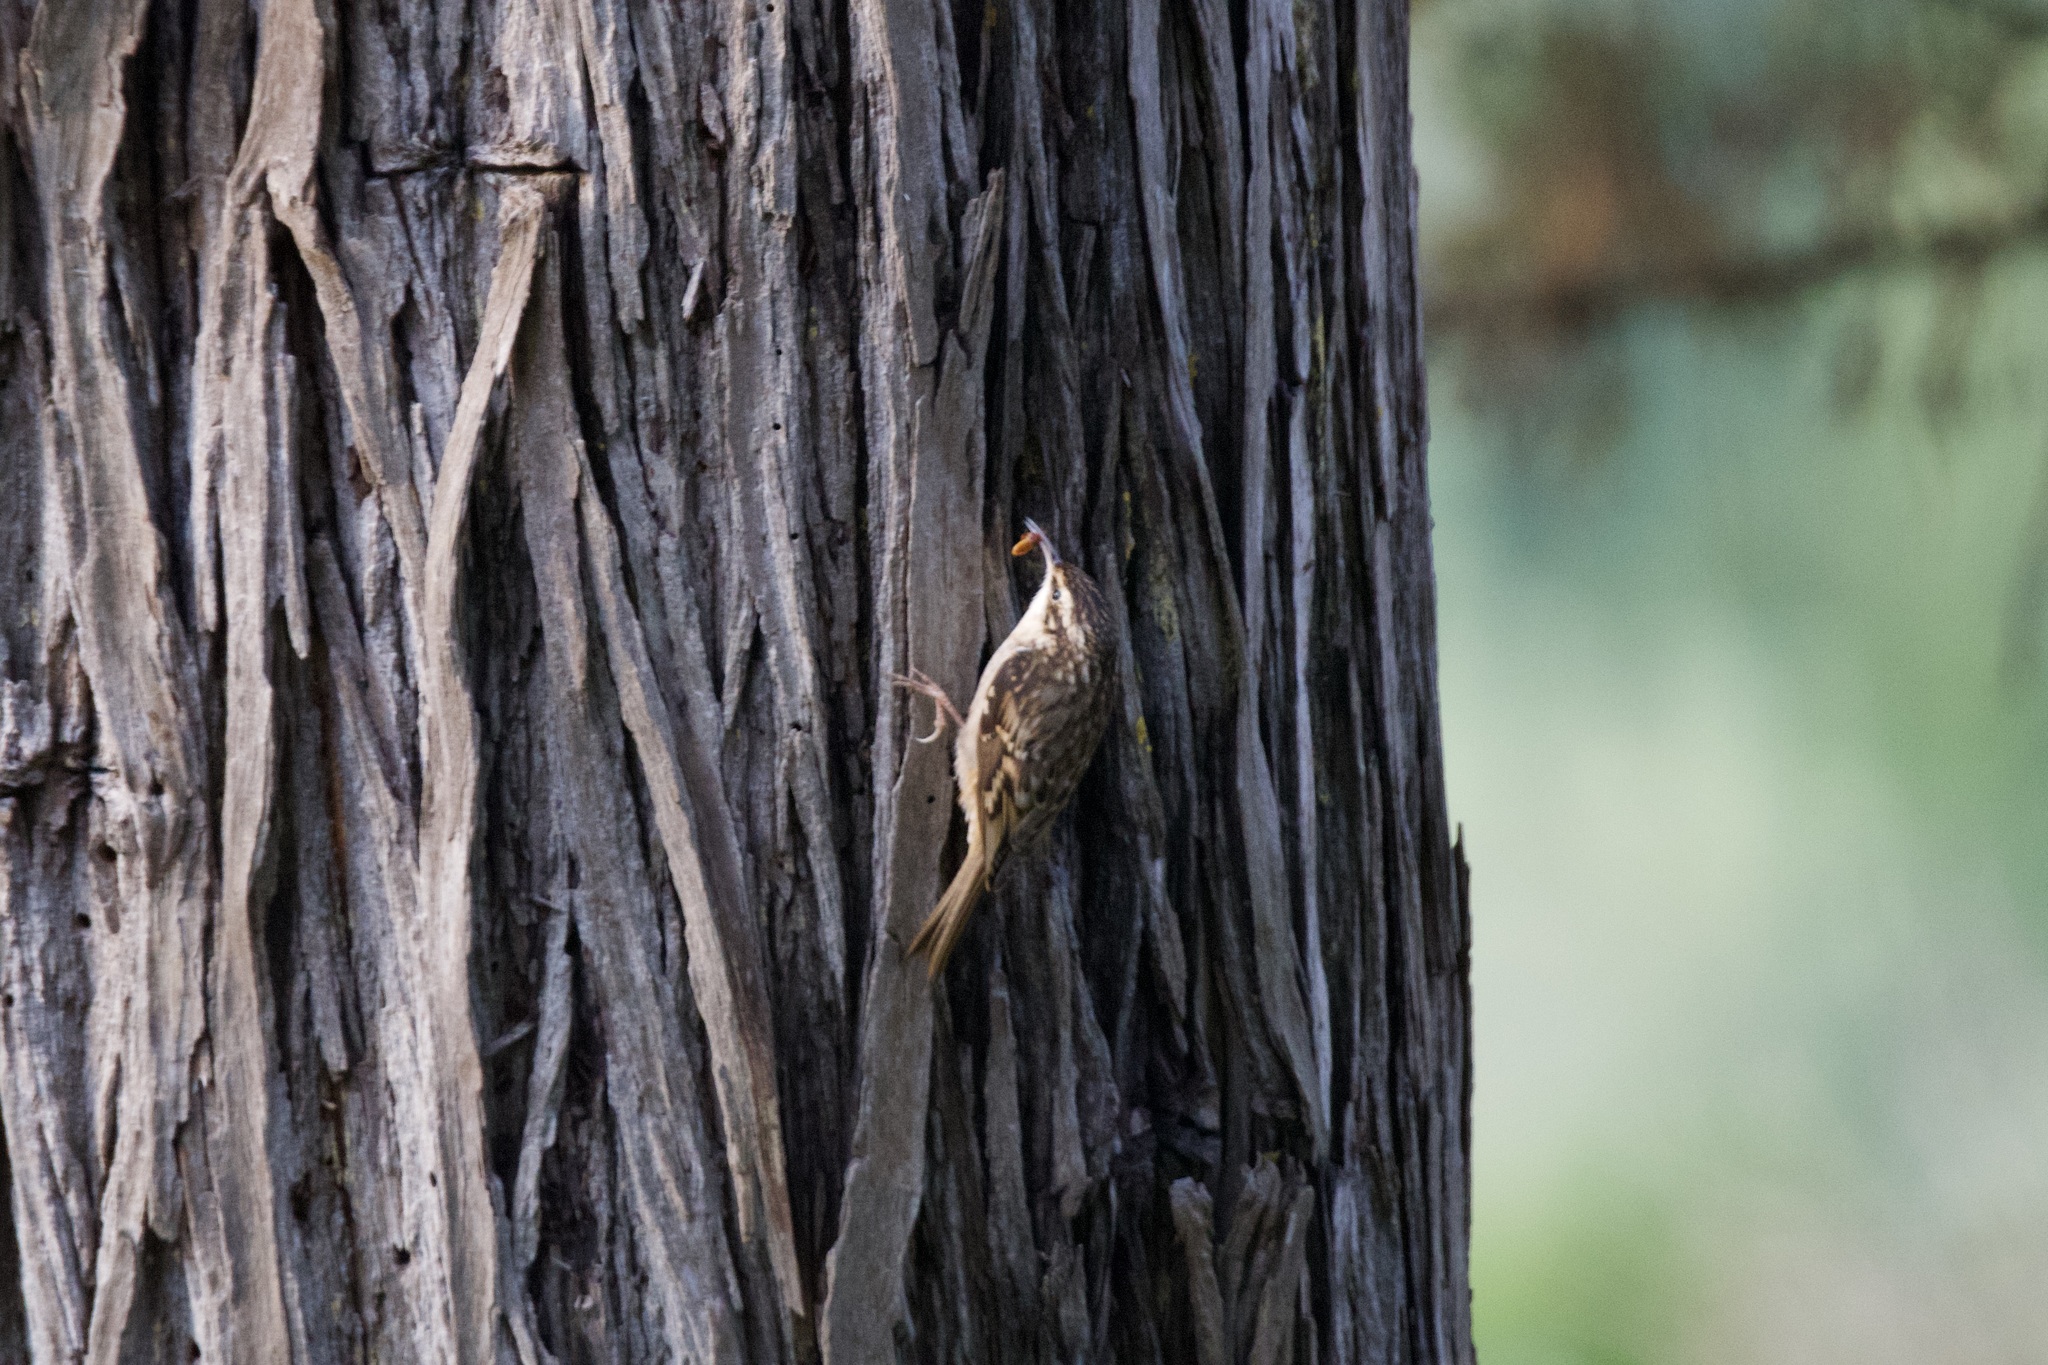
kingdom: Animalia
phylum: Chordata
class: Aves
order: Passeriformes
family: Certhiidae
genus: Certhia
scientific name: Certhia americana
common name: Brown creeper
